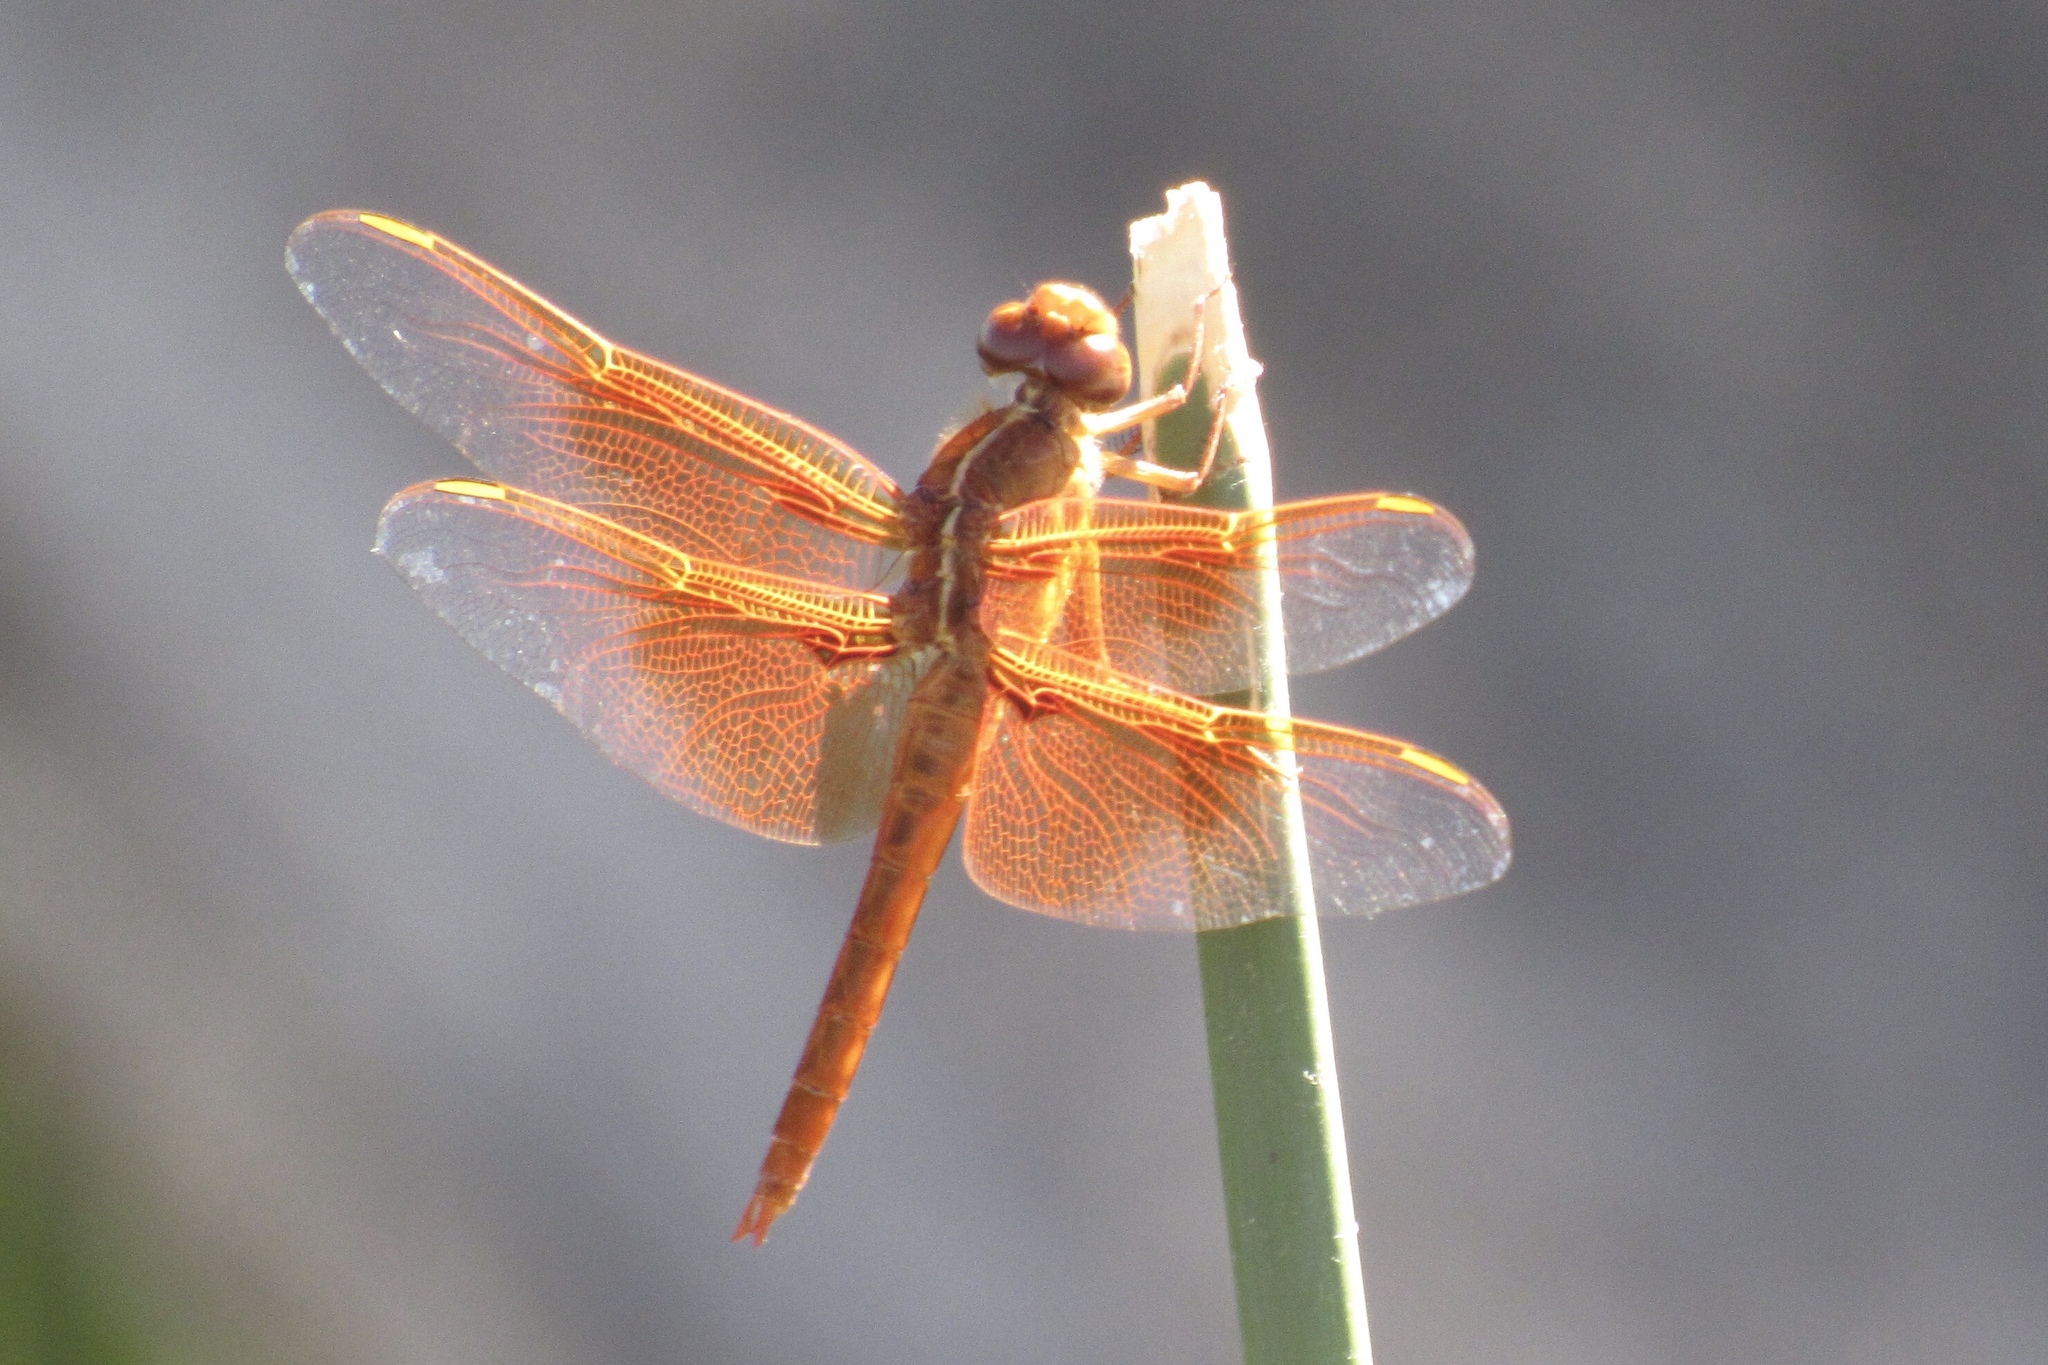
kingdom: Animalia
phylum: Arthropoda
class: Insecta
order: Odonata
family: Libellulidae
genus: Libellula
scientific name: Libellula saturata
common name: Flame skimmer
